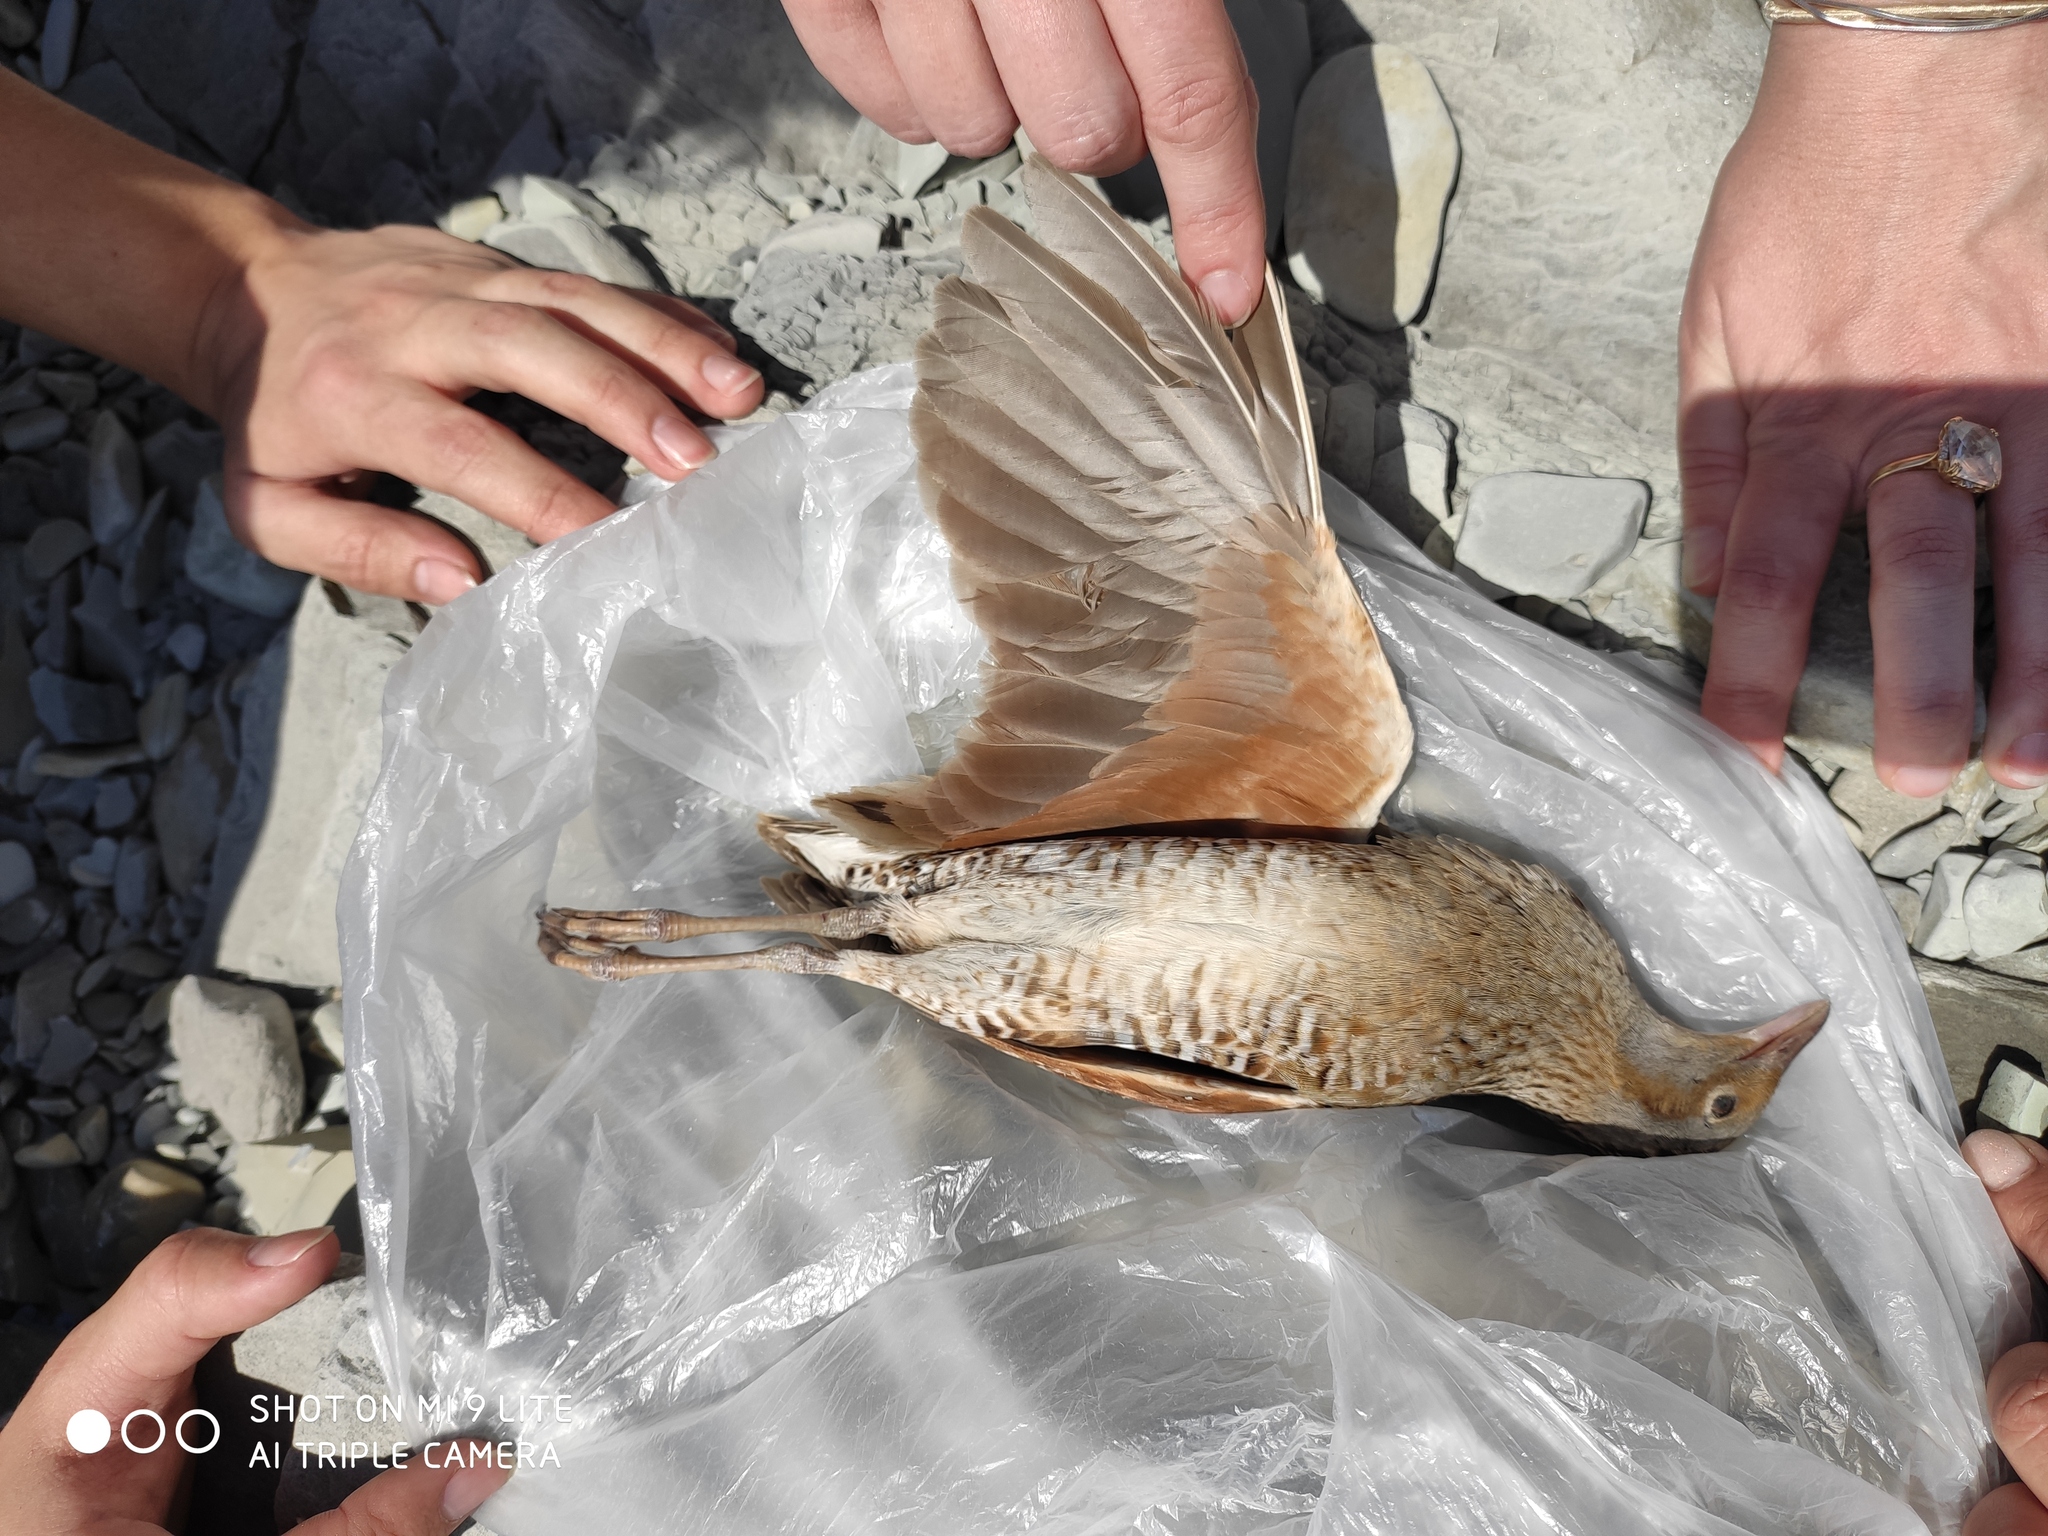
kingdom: Animalia
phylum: Chordata
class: Aves
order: Gruiformes
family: Rallidae
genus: Crex
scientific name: Crex crex
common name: Corn crake
